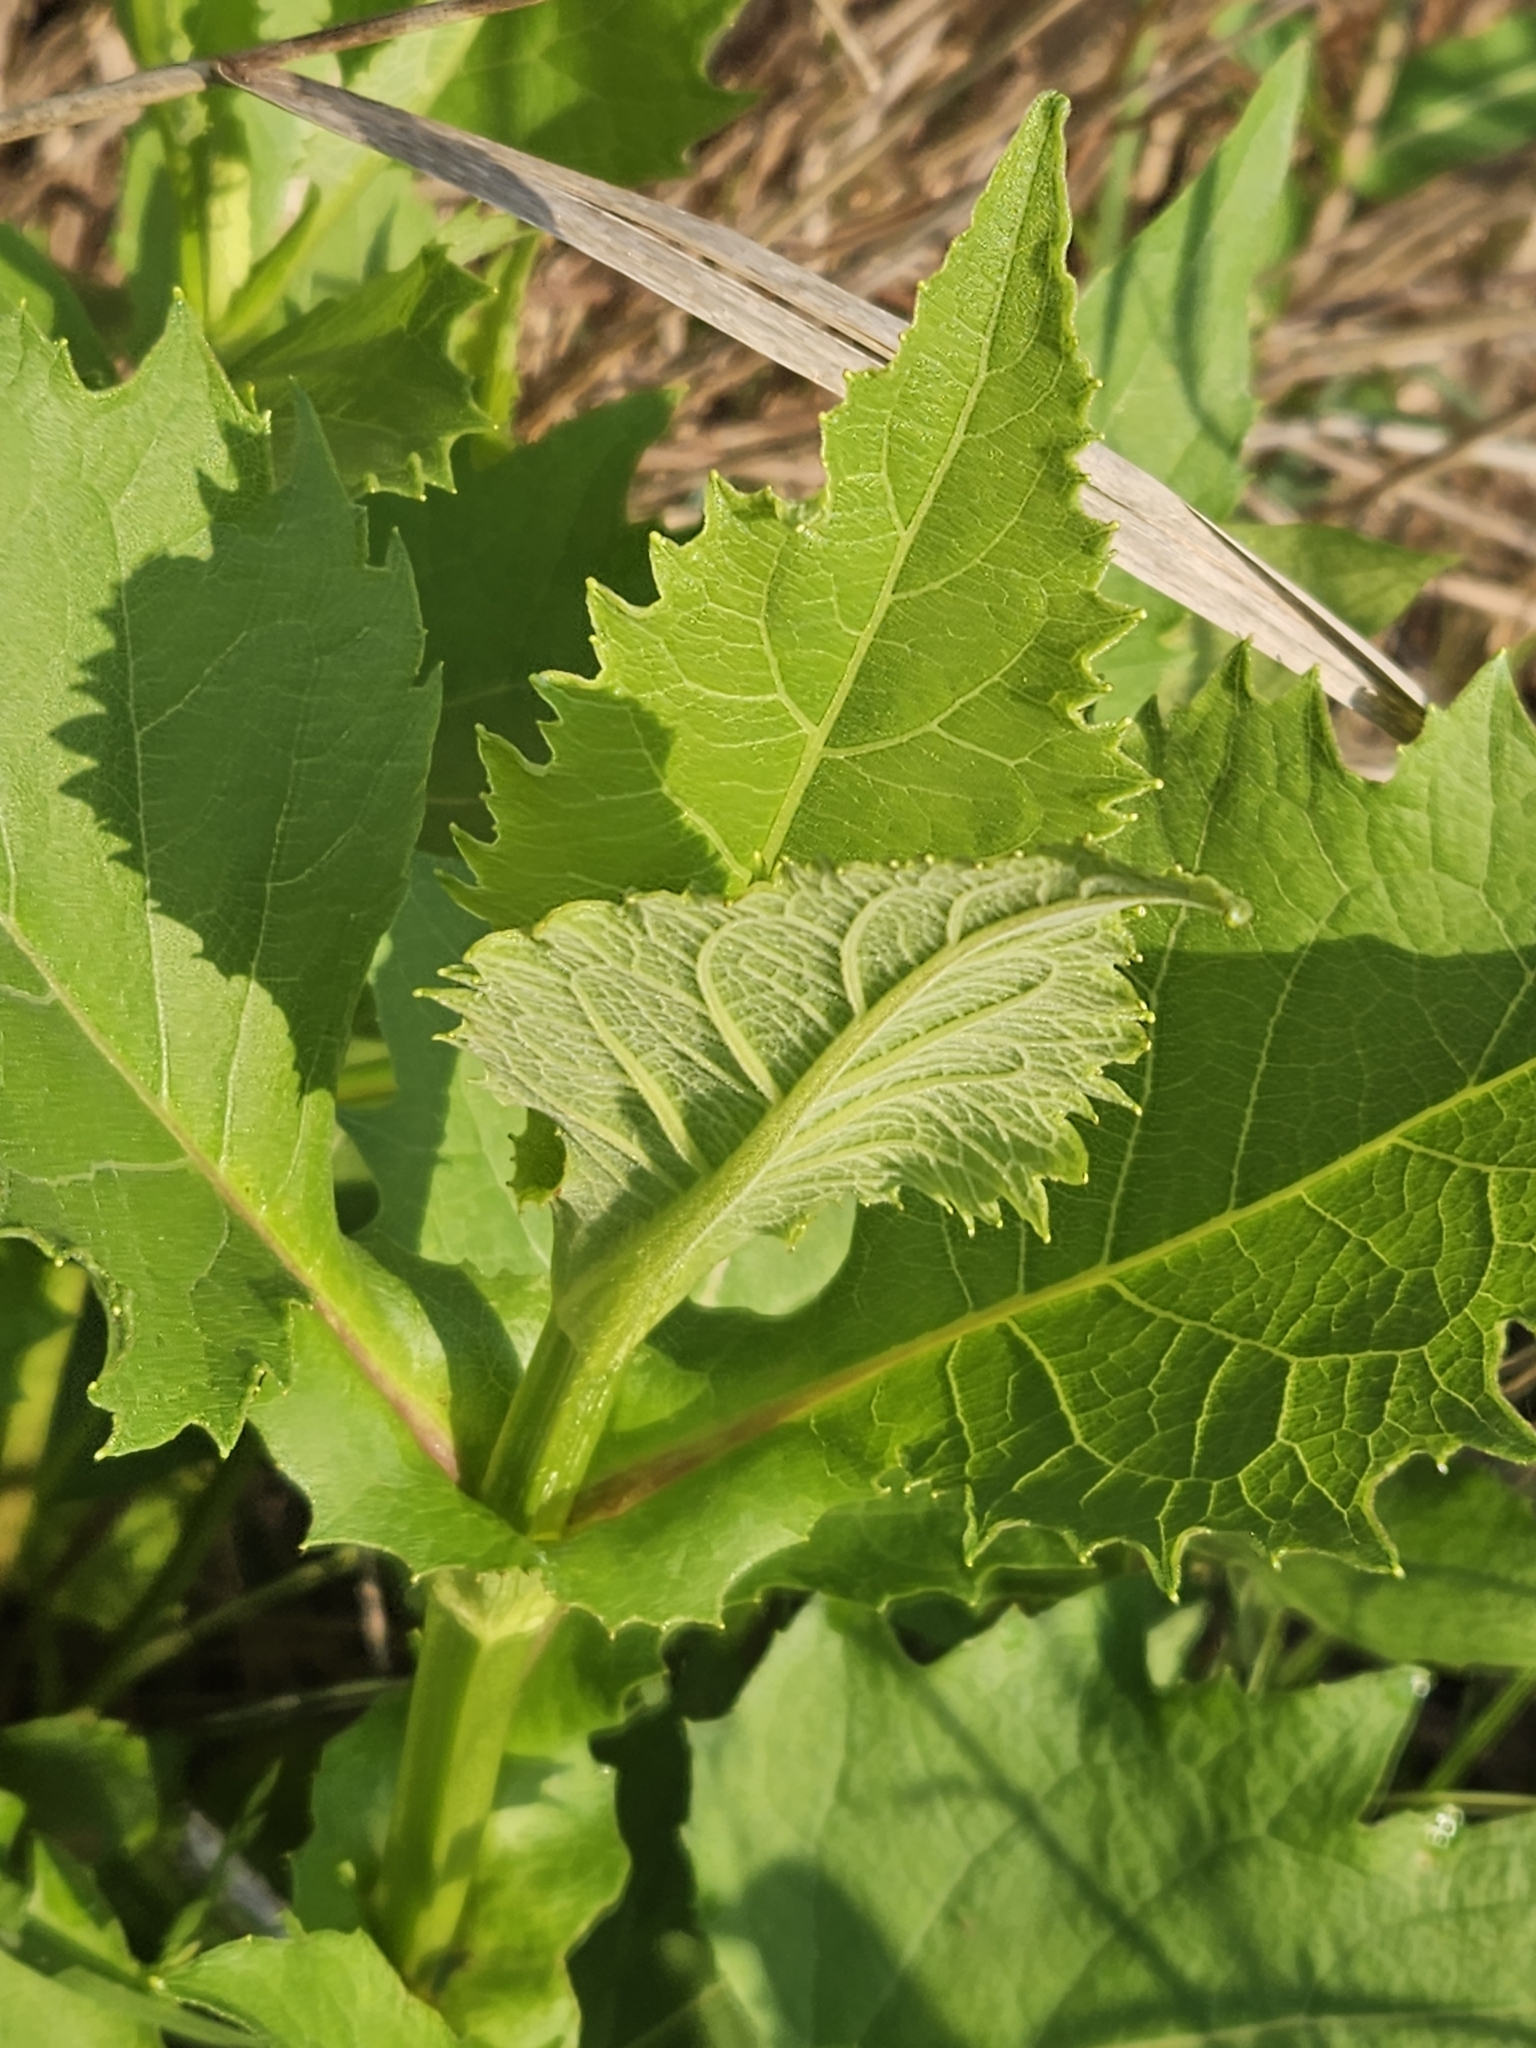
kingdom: Plantae
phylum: Tracheophyta
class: Magnoliopsida
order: Asterales
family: Asteraceae
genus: Silphium
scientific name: Silphium perfoliatum
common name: Cup-plant
